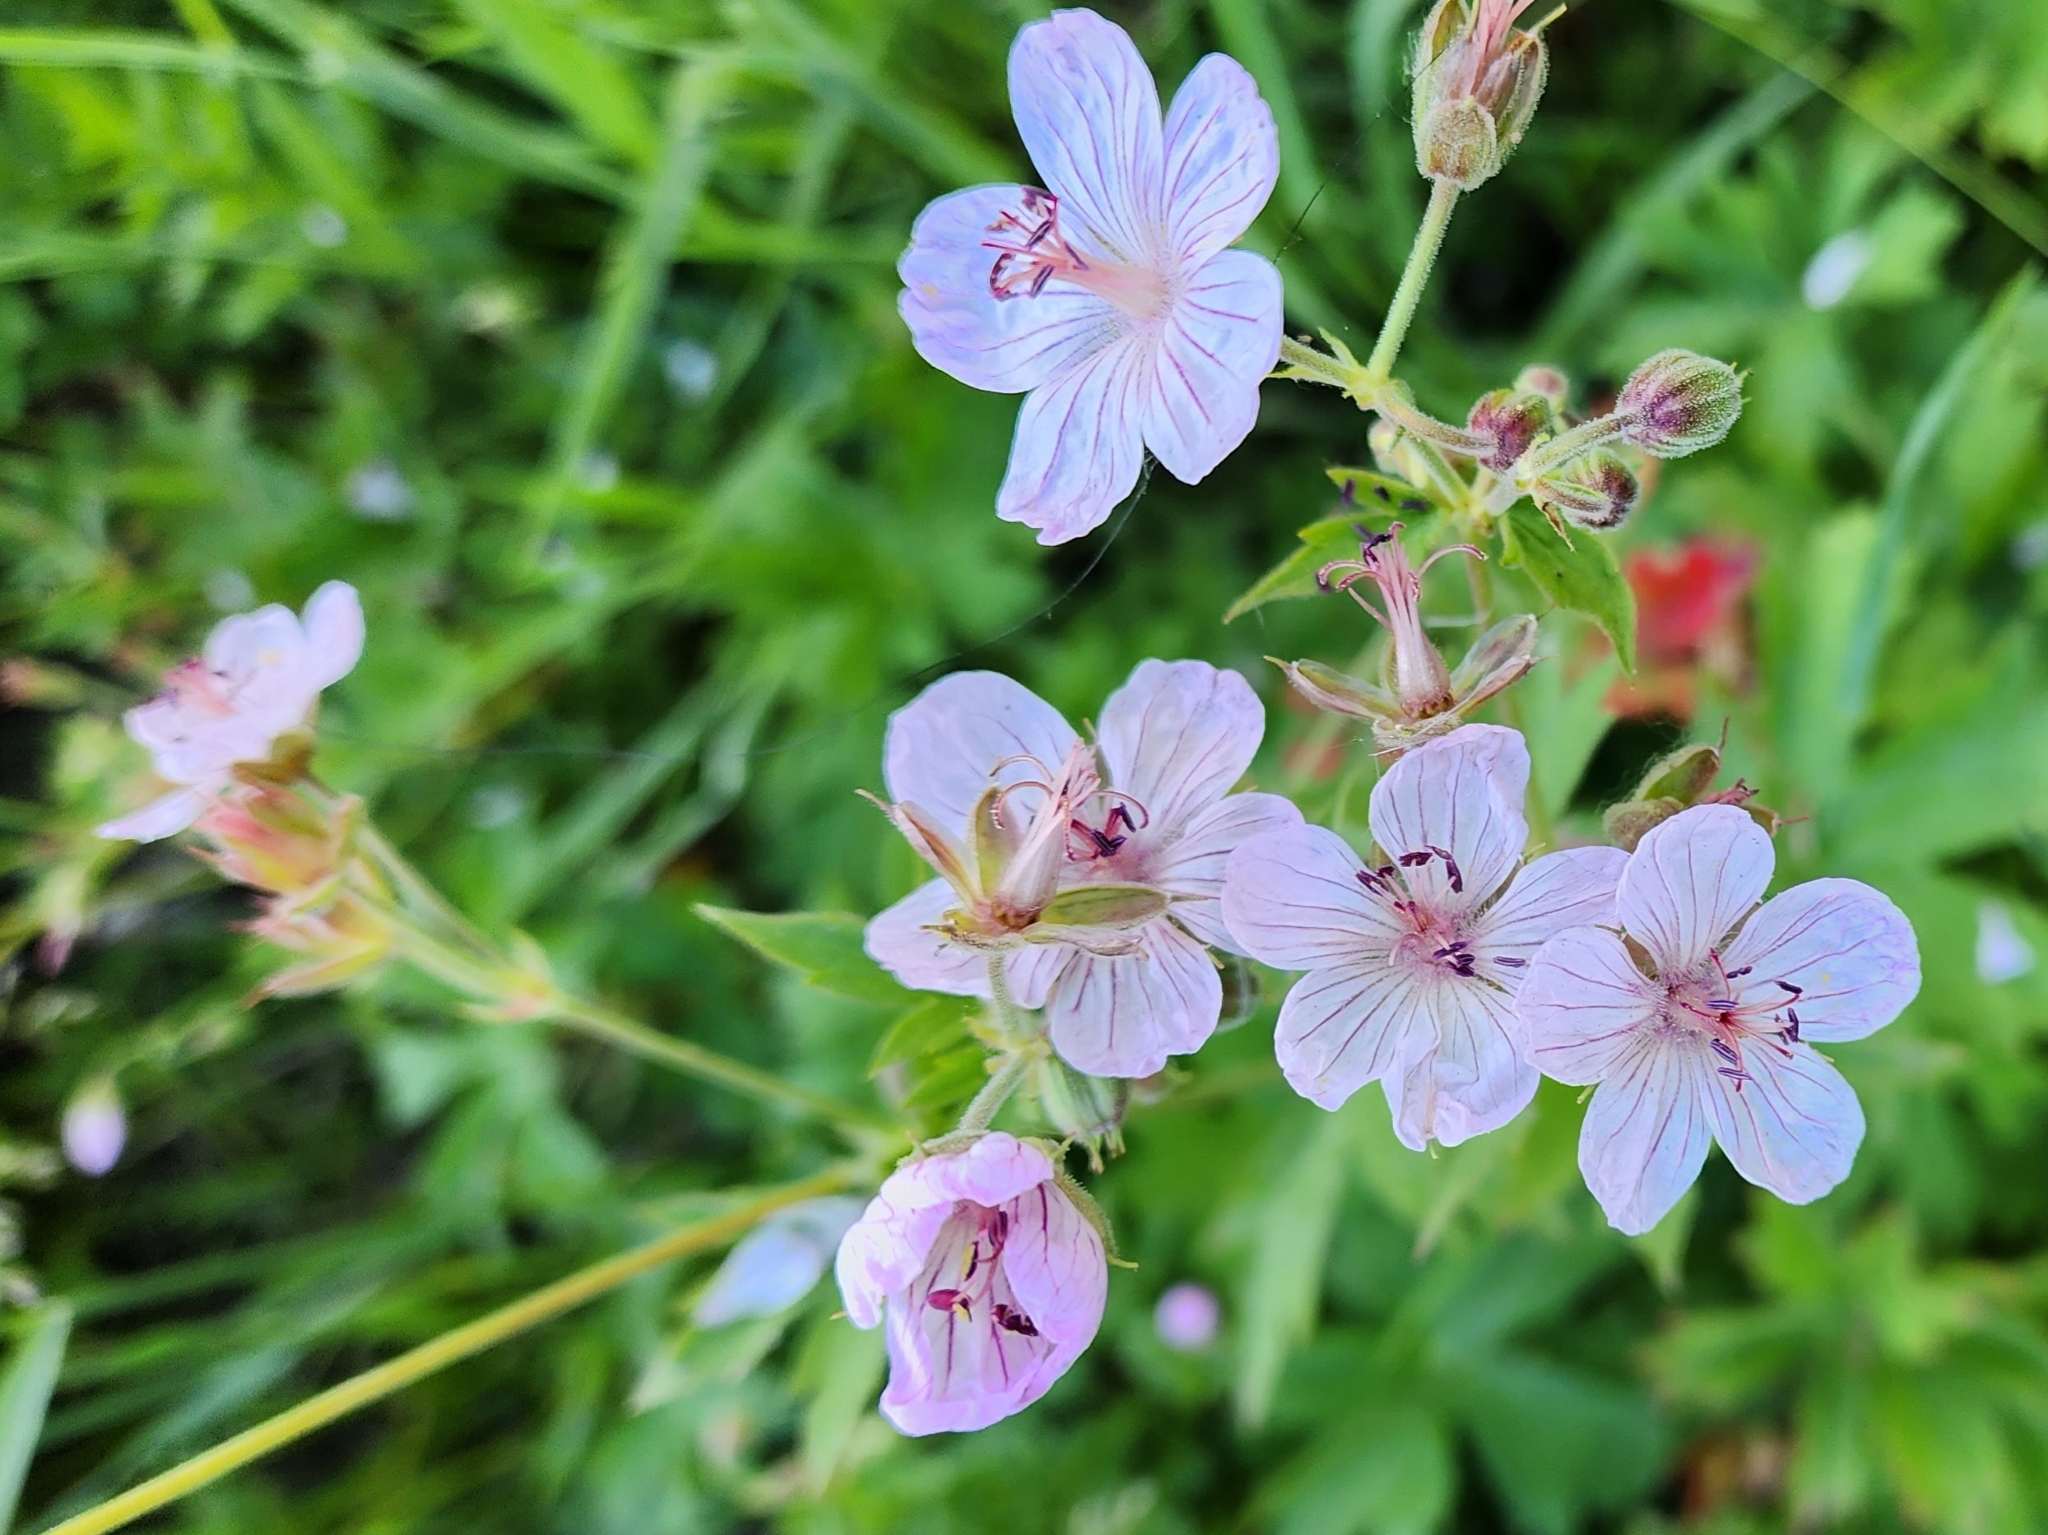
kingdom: Plantae
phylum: Tracheophyta
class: Magnoliopsida
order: Geraniales
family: Geraniaceae
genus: Geranium
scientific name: Geranium richardsonii
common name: Richardson's crane's-bill
